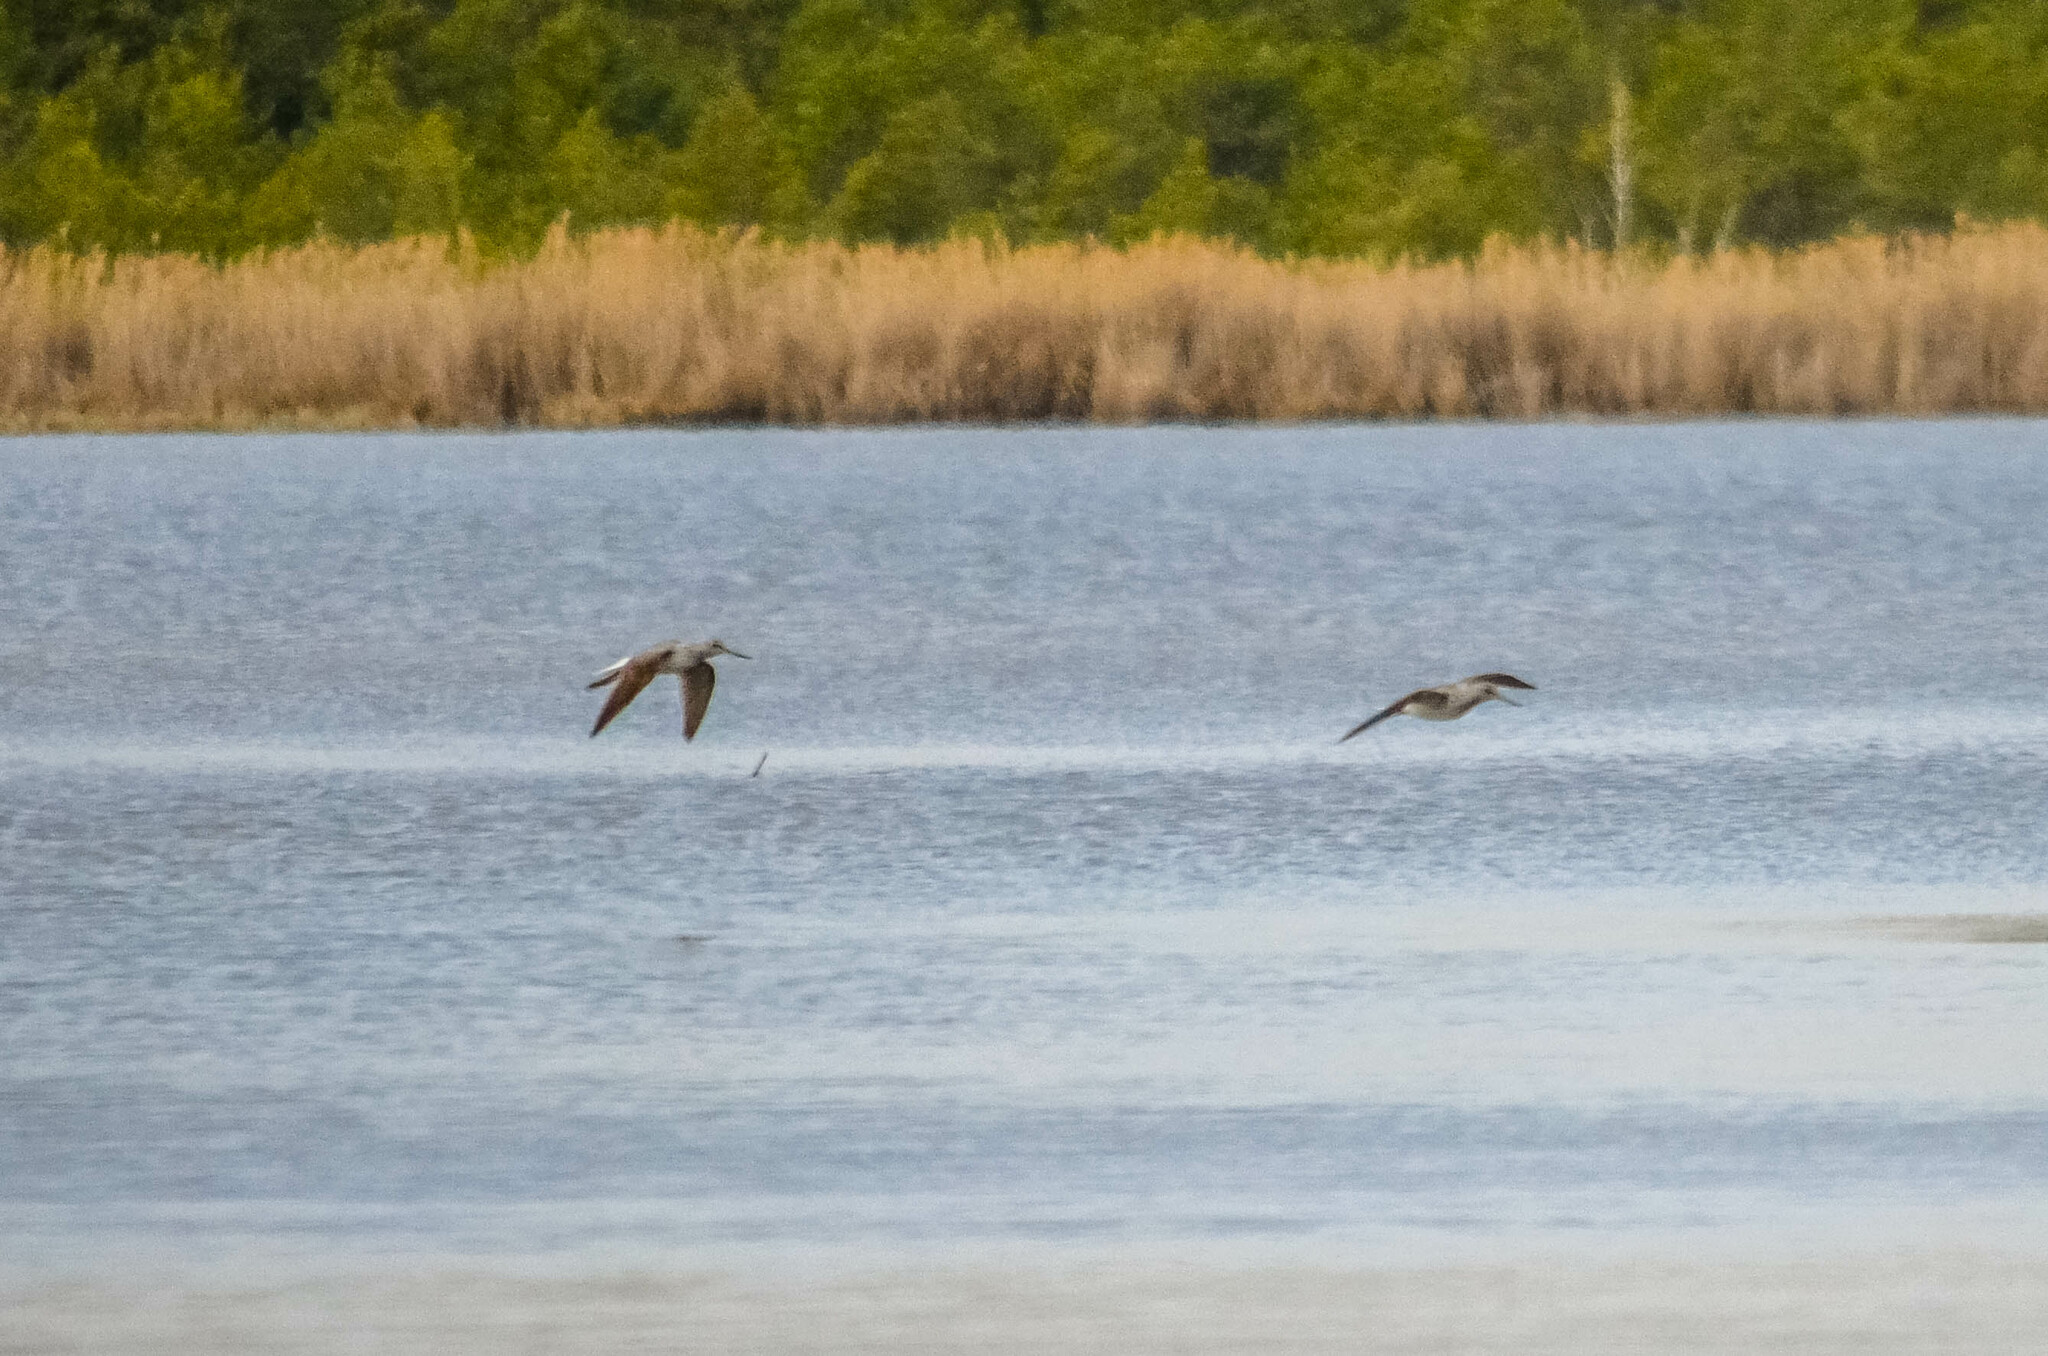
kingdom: Animalia
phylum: Chordata
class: Aves
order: Charadriiformes
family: Scolopacidae
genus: Tringa
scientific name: Tringa nebularia
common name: Common greenshank
